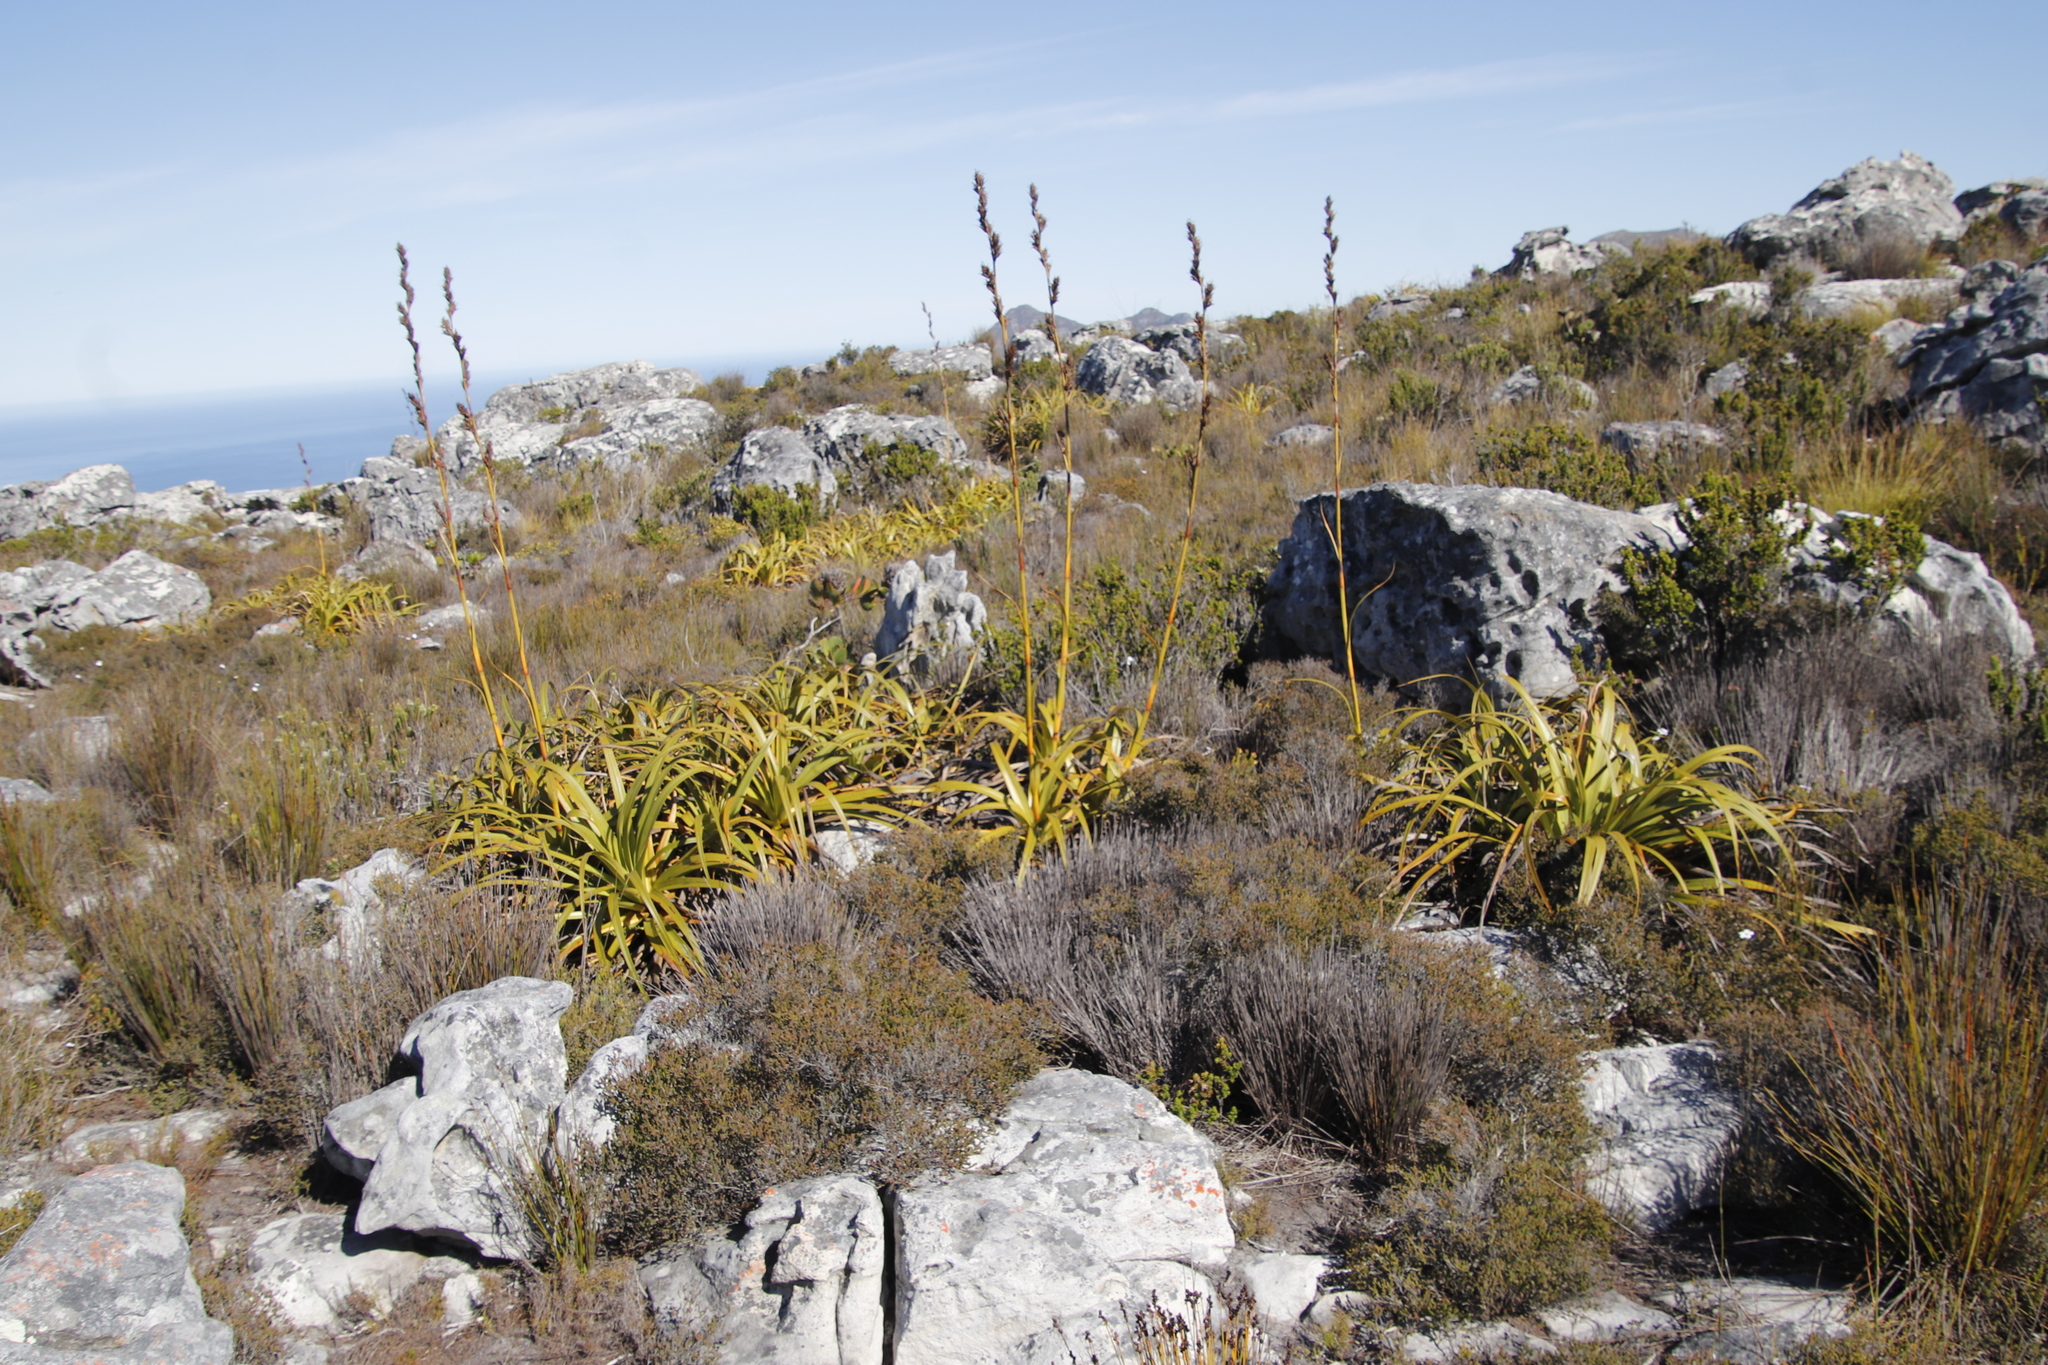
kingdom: Plantae
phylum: Tracheophyta
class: Liliopsida
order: Poales
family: Cyperaceae
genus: Tetraria
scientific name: Tetraria thermalis
